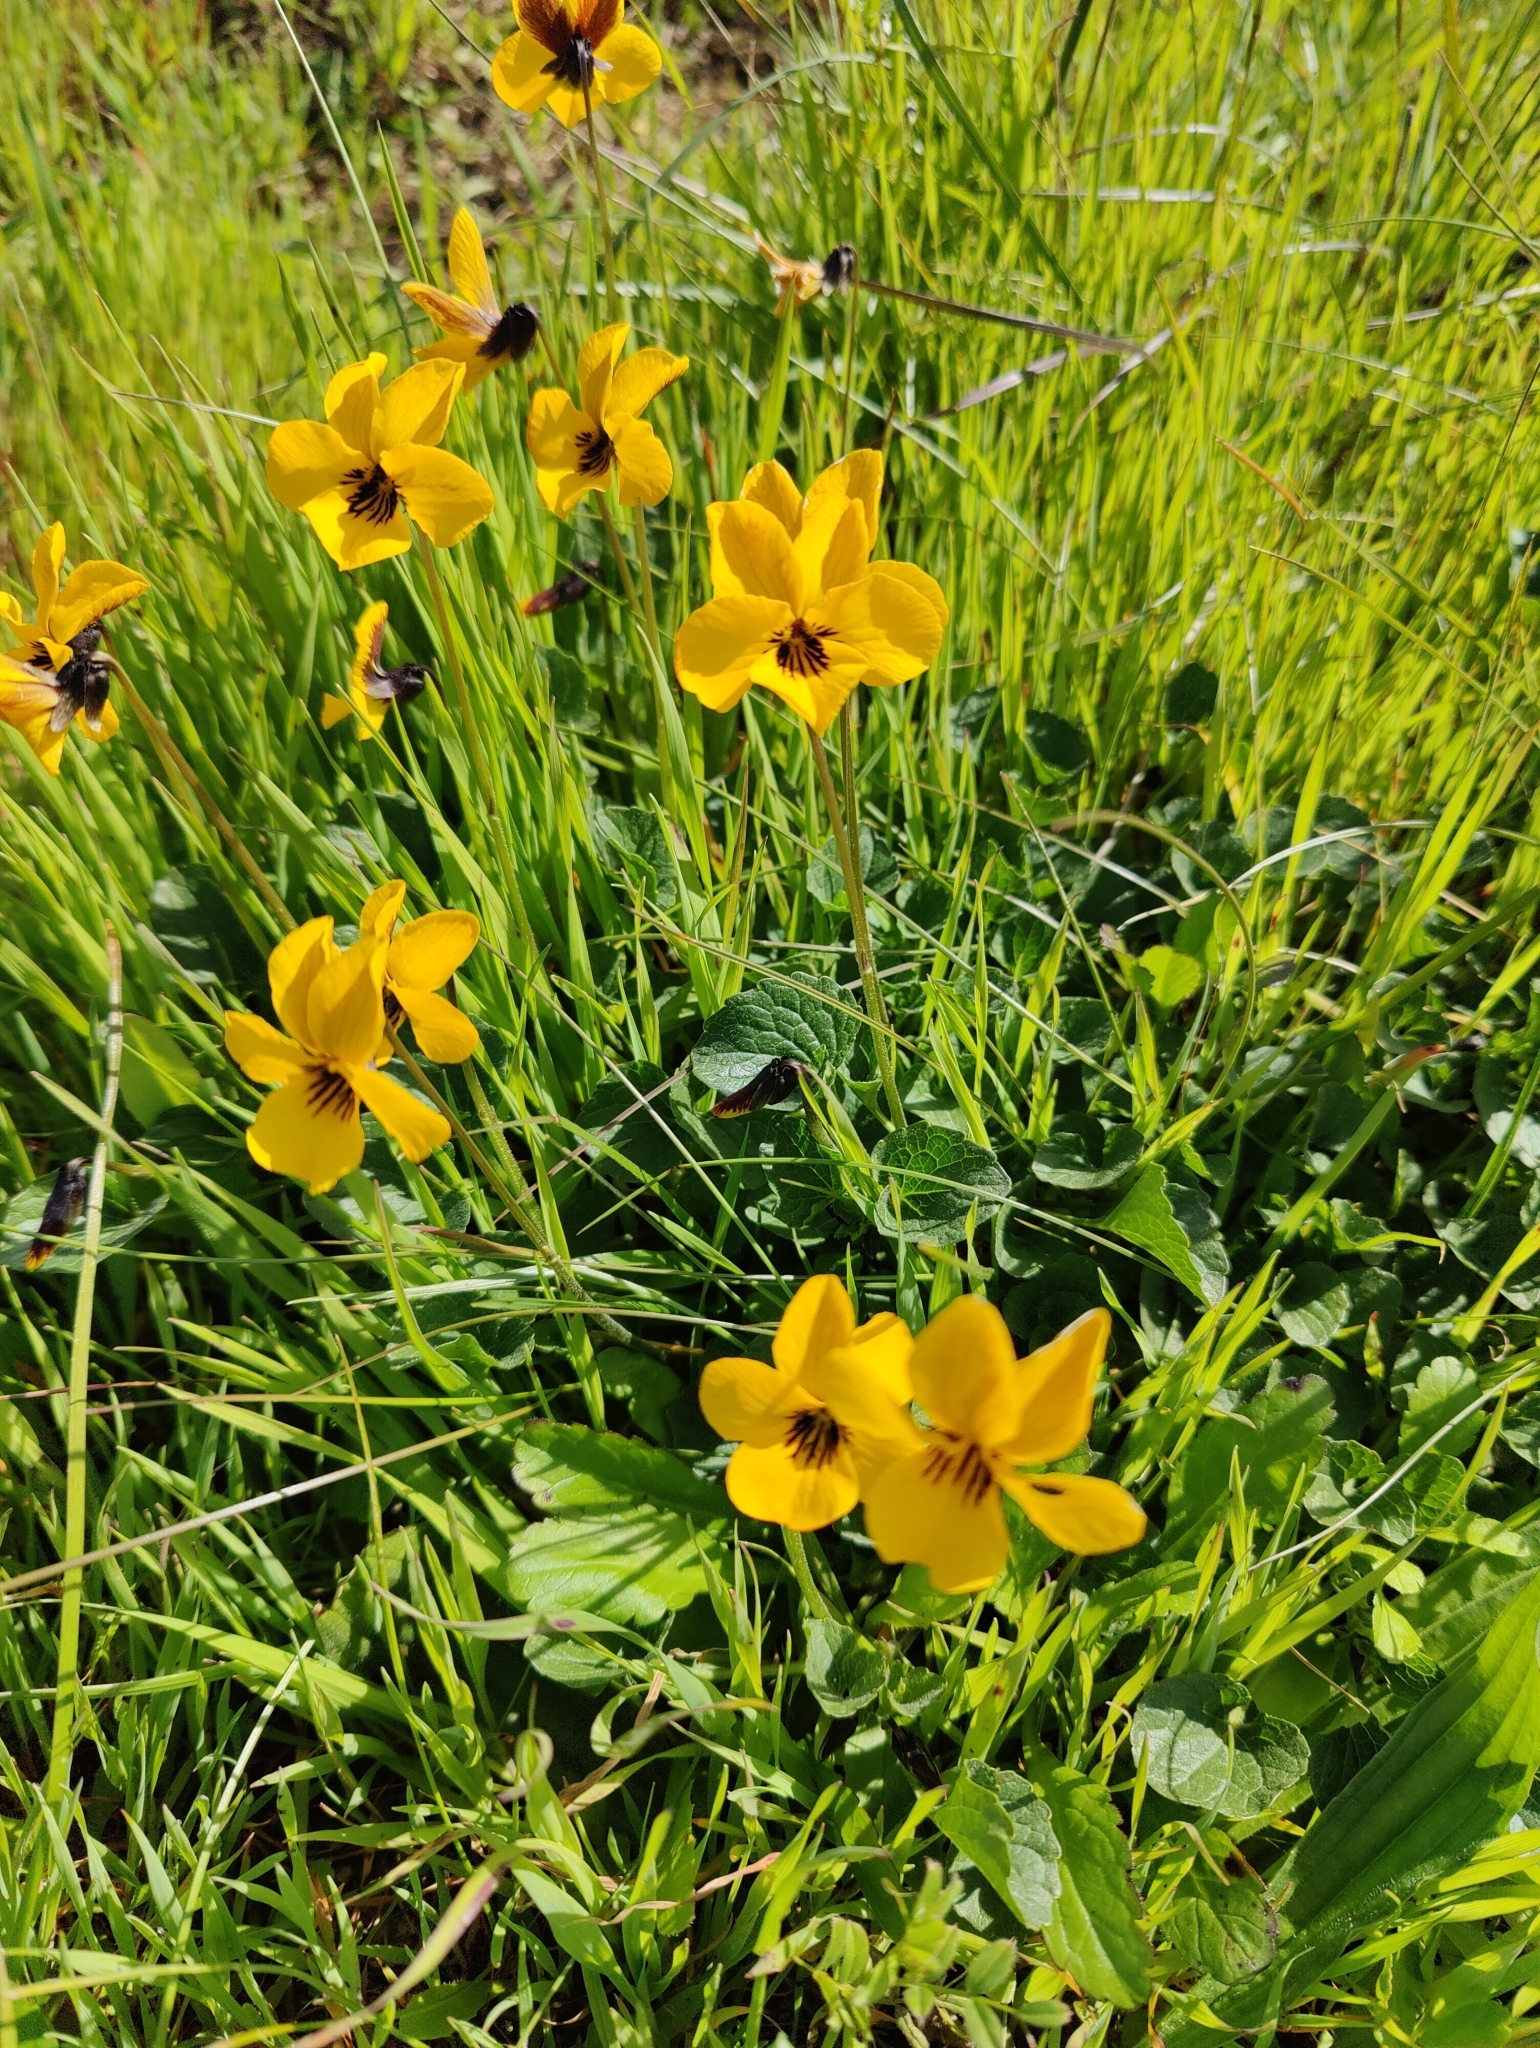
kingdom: Plantae
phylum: Tracheophyta
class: Magnoliopsida
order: Malpighiales
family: Violaceae
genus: Viola
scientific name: Viola pedunculata
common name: California golden violet
